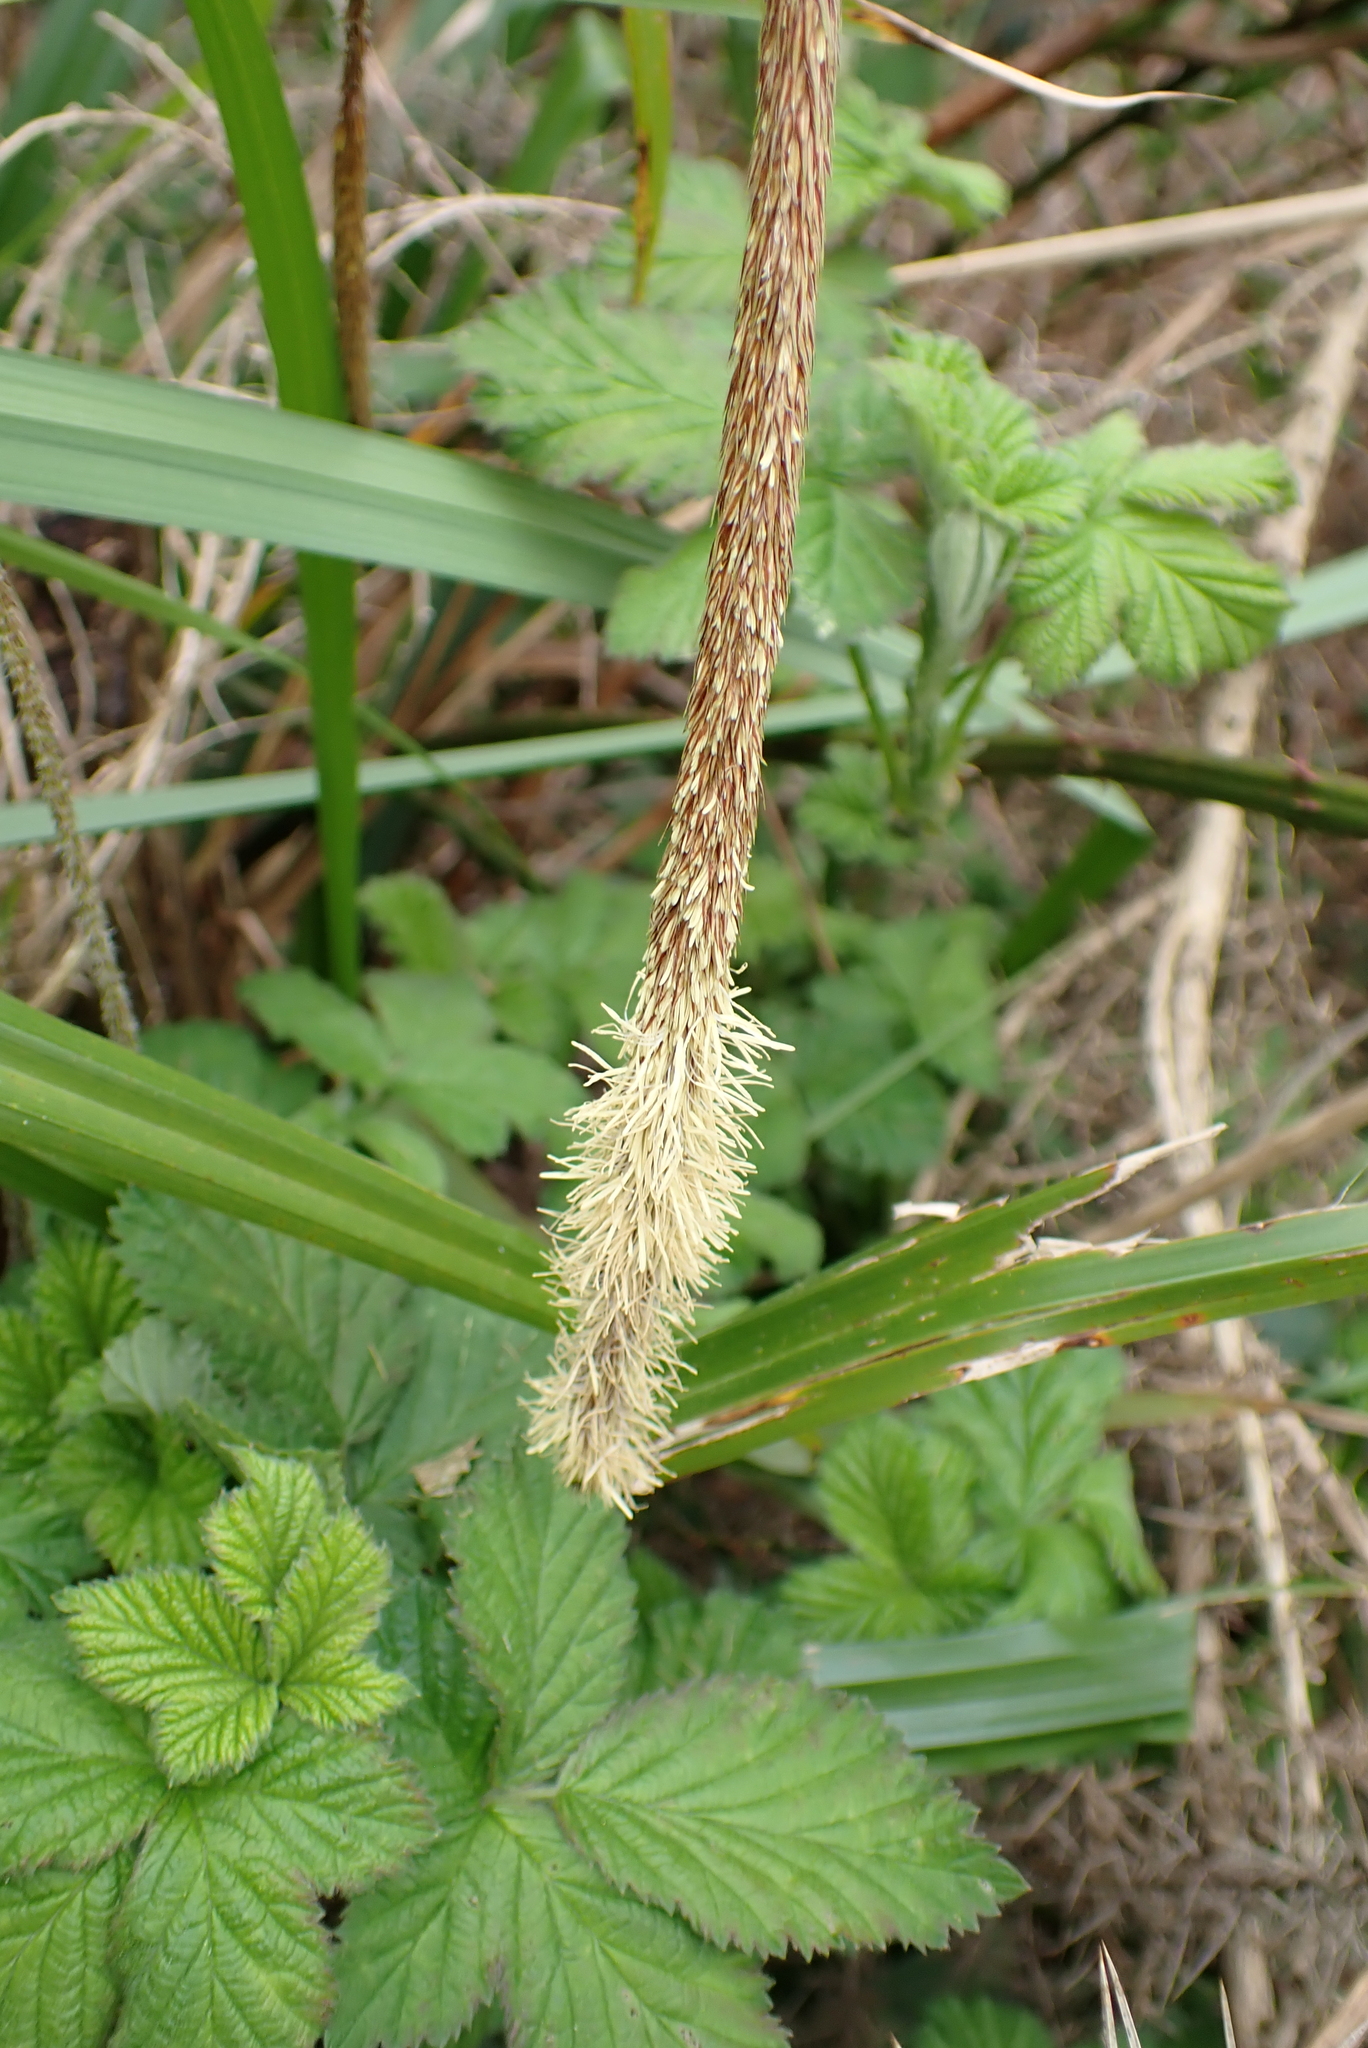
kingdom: Plantae
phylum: Tracheophyta
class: Liliopsida
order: Poales
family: Cyperaceae
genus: Carex
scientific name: Carex pendula
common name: Pendulous sedge
